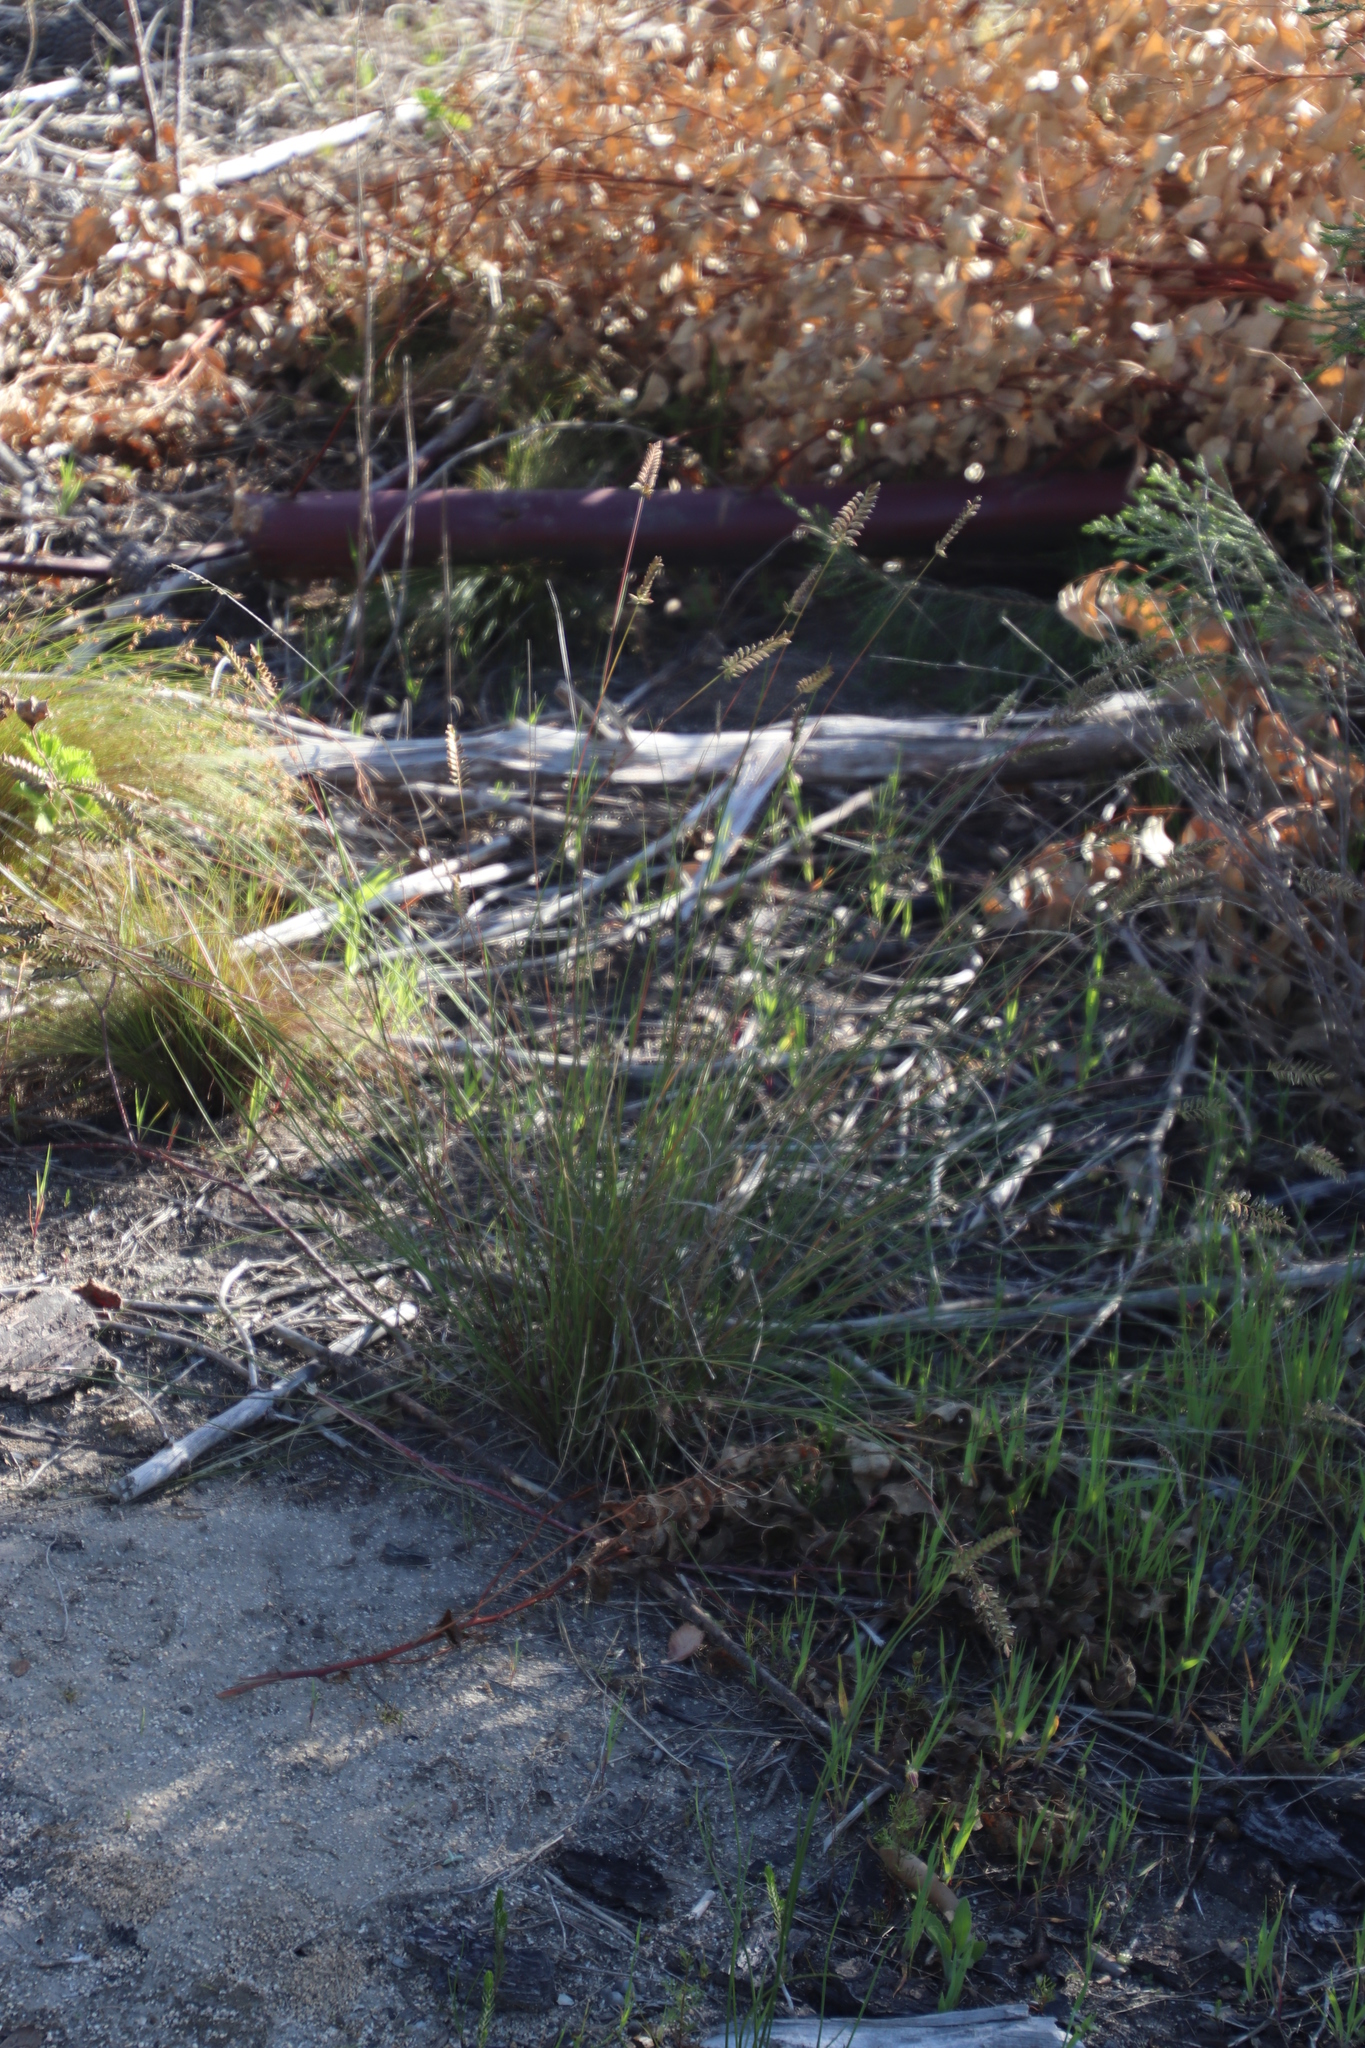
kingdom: Plantae
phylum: Tracheophyta
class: Liliopsida
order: Poales
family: Poaceae
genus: Tribolium
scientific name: Tribolium uniolae
